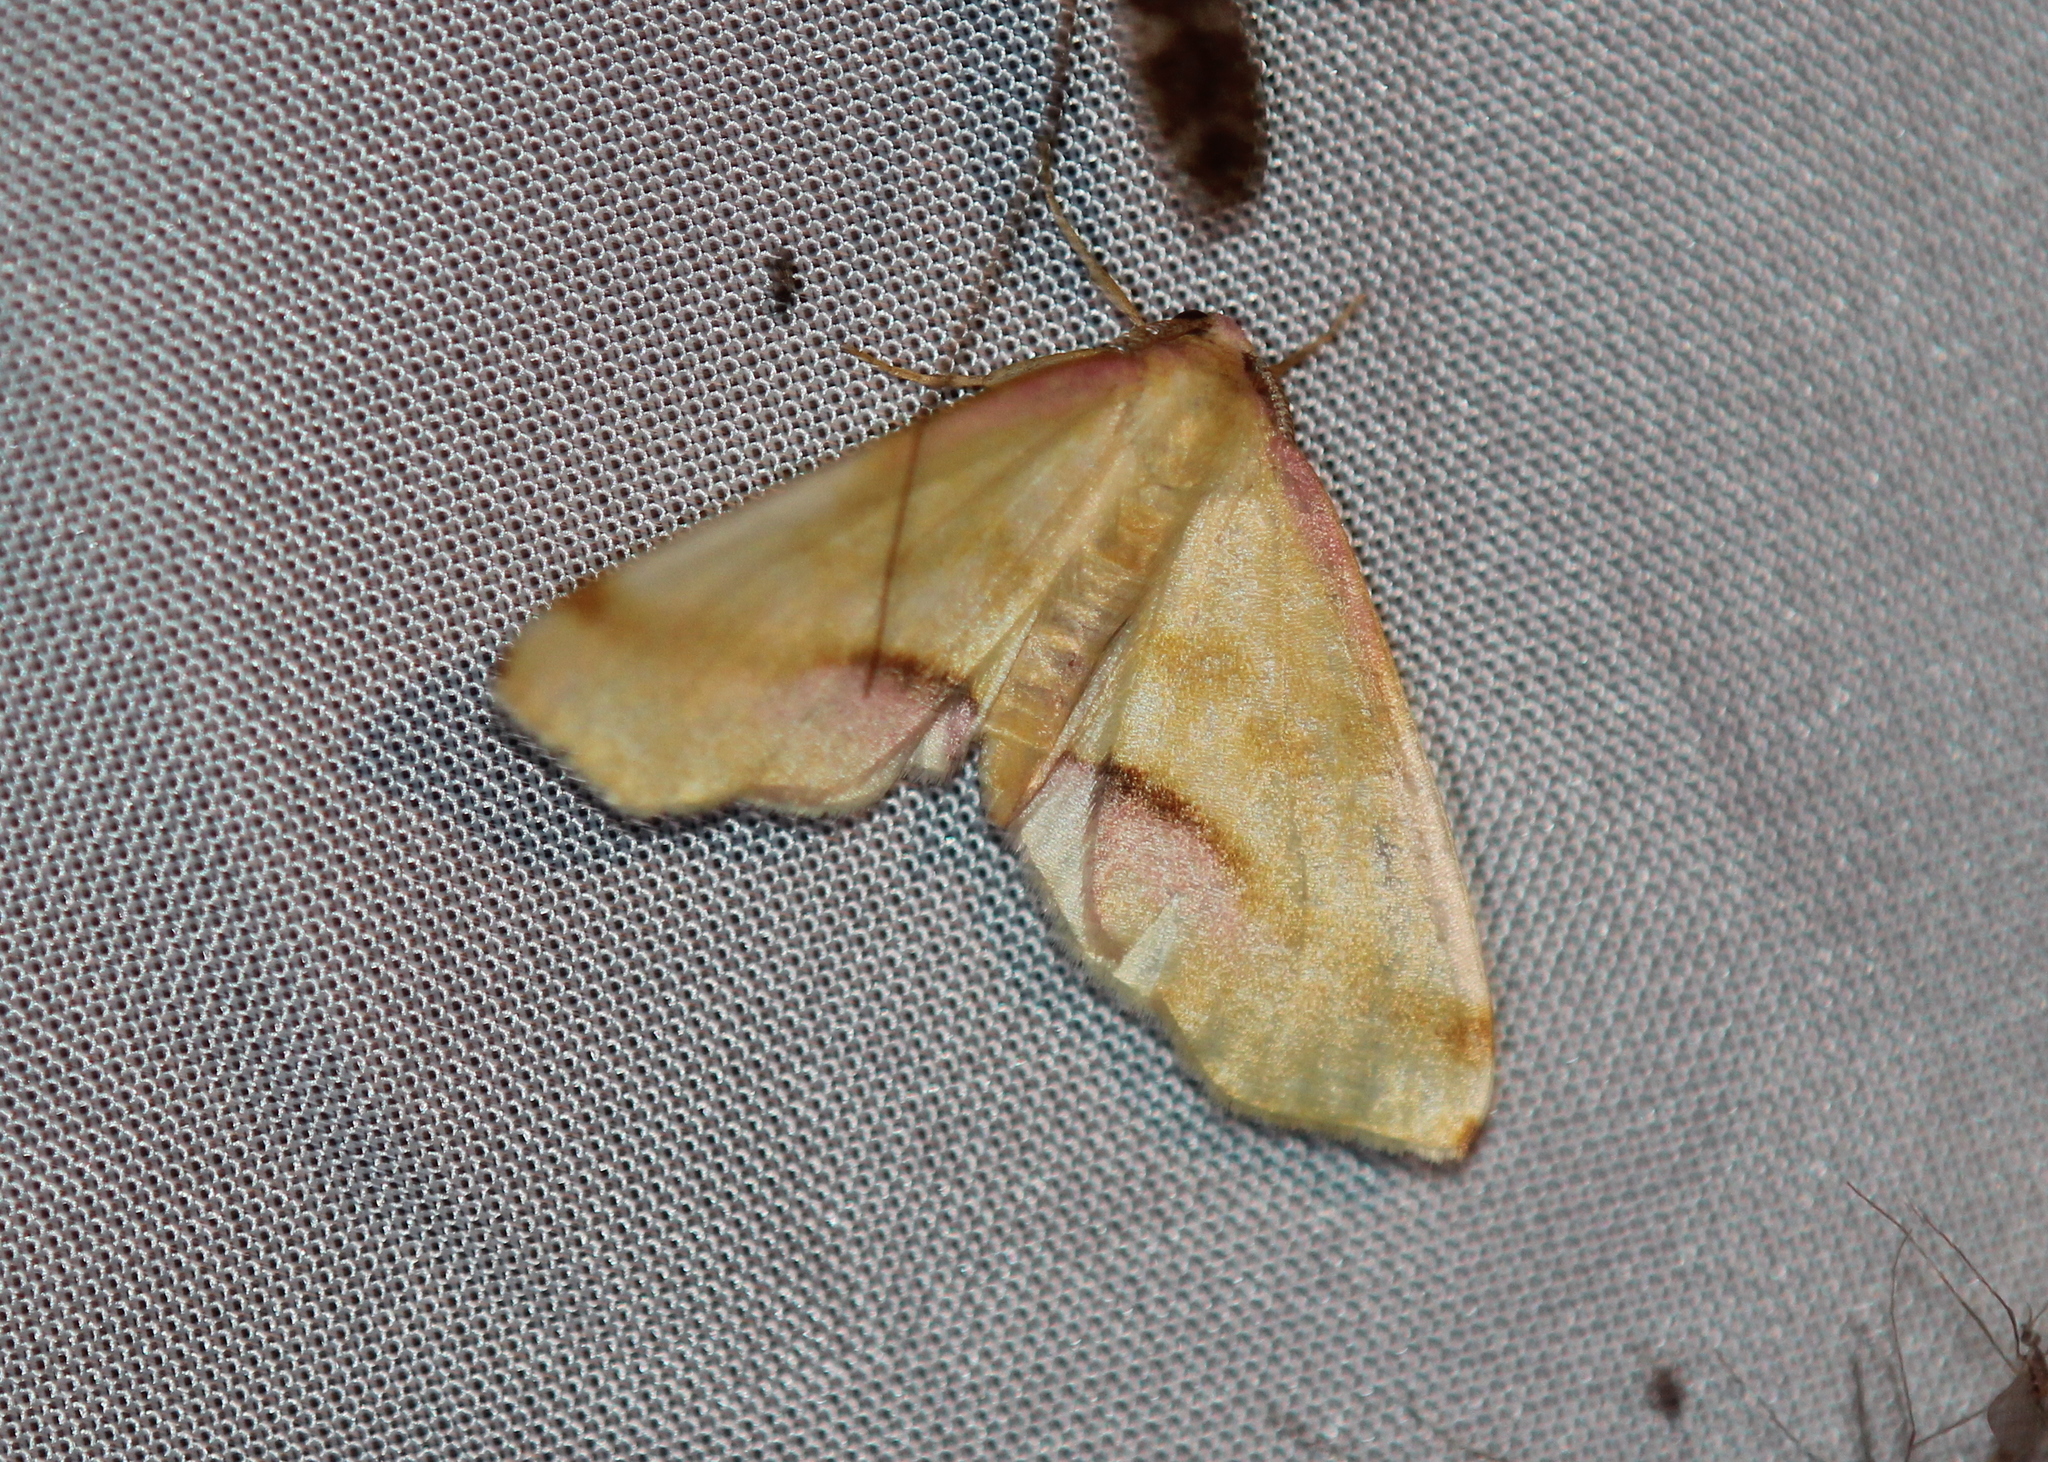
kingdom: Animalia
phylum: Arthropoda
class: Insecta
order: Lepidoptera
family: Geometridae
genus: Plagodis
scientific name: Plagodis serinaria
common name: Lemon plagodis
